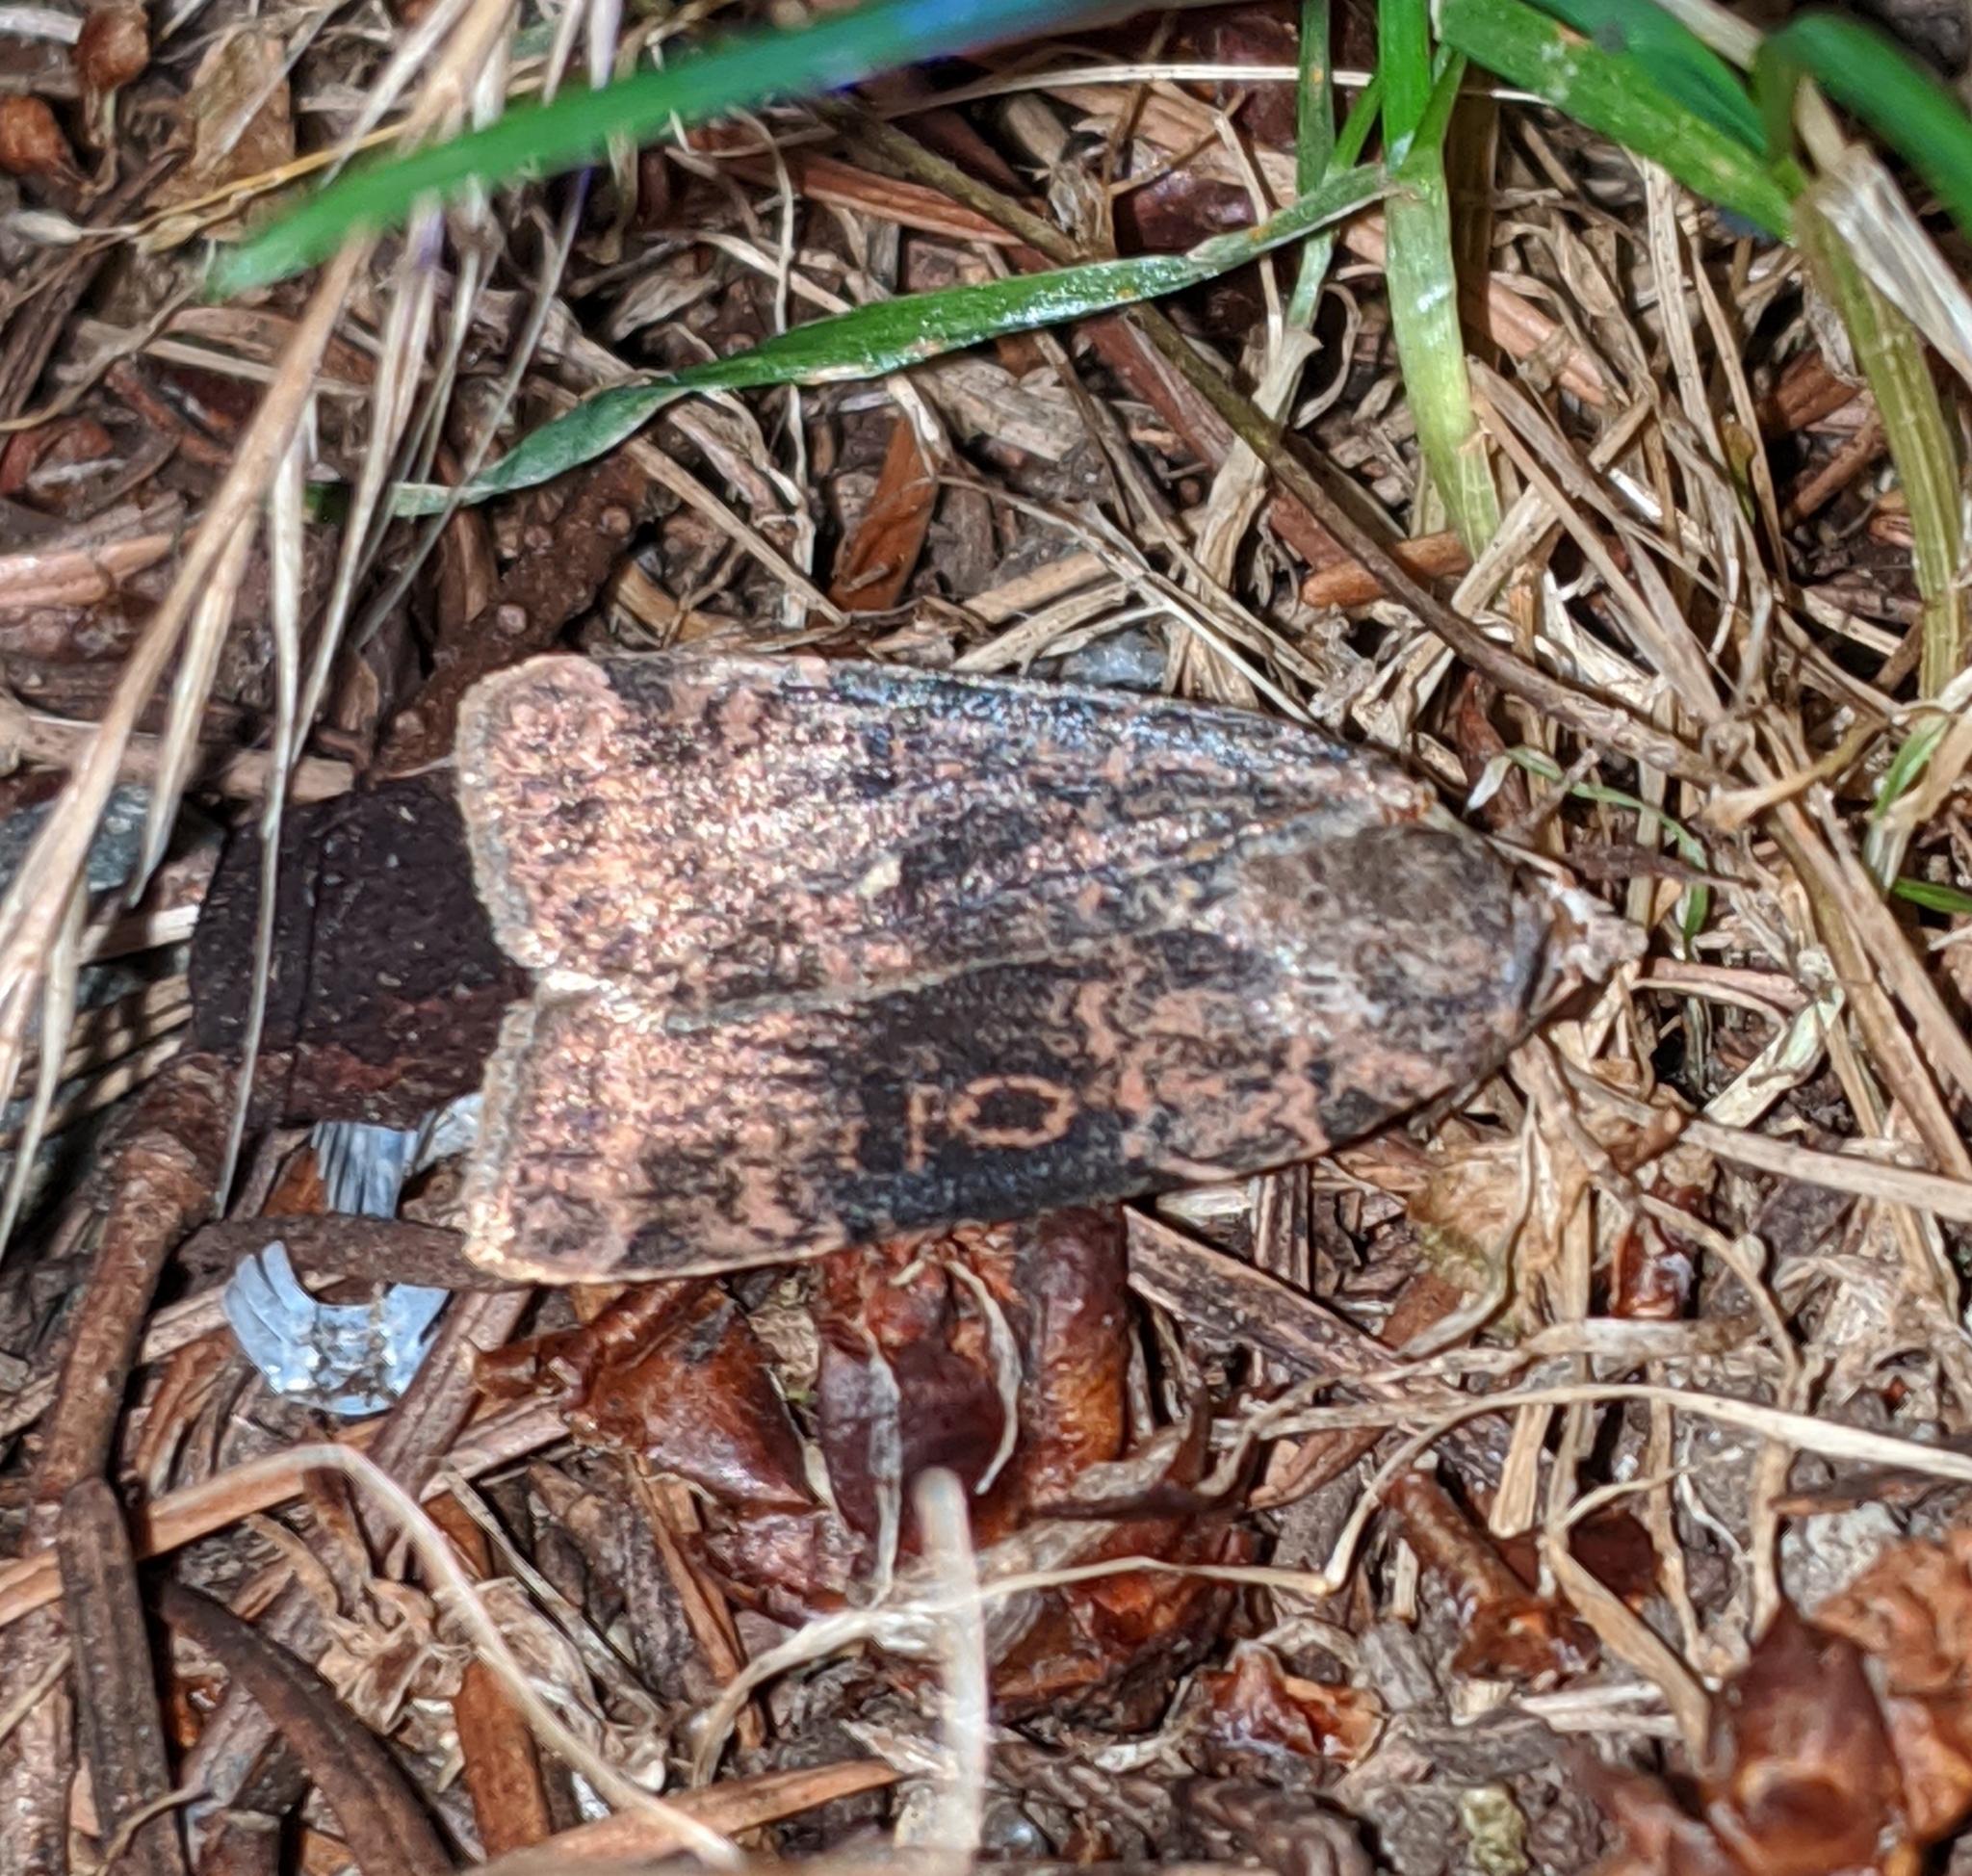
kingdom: Animalia
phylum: Arthropoda
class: Insecta
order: Lepidoptera
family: Noctuidae
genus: Abagrotis
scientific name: Abagrotis baueri
